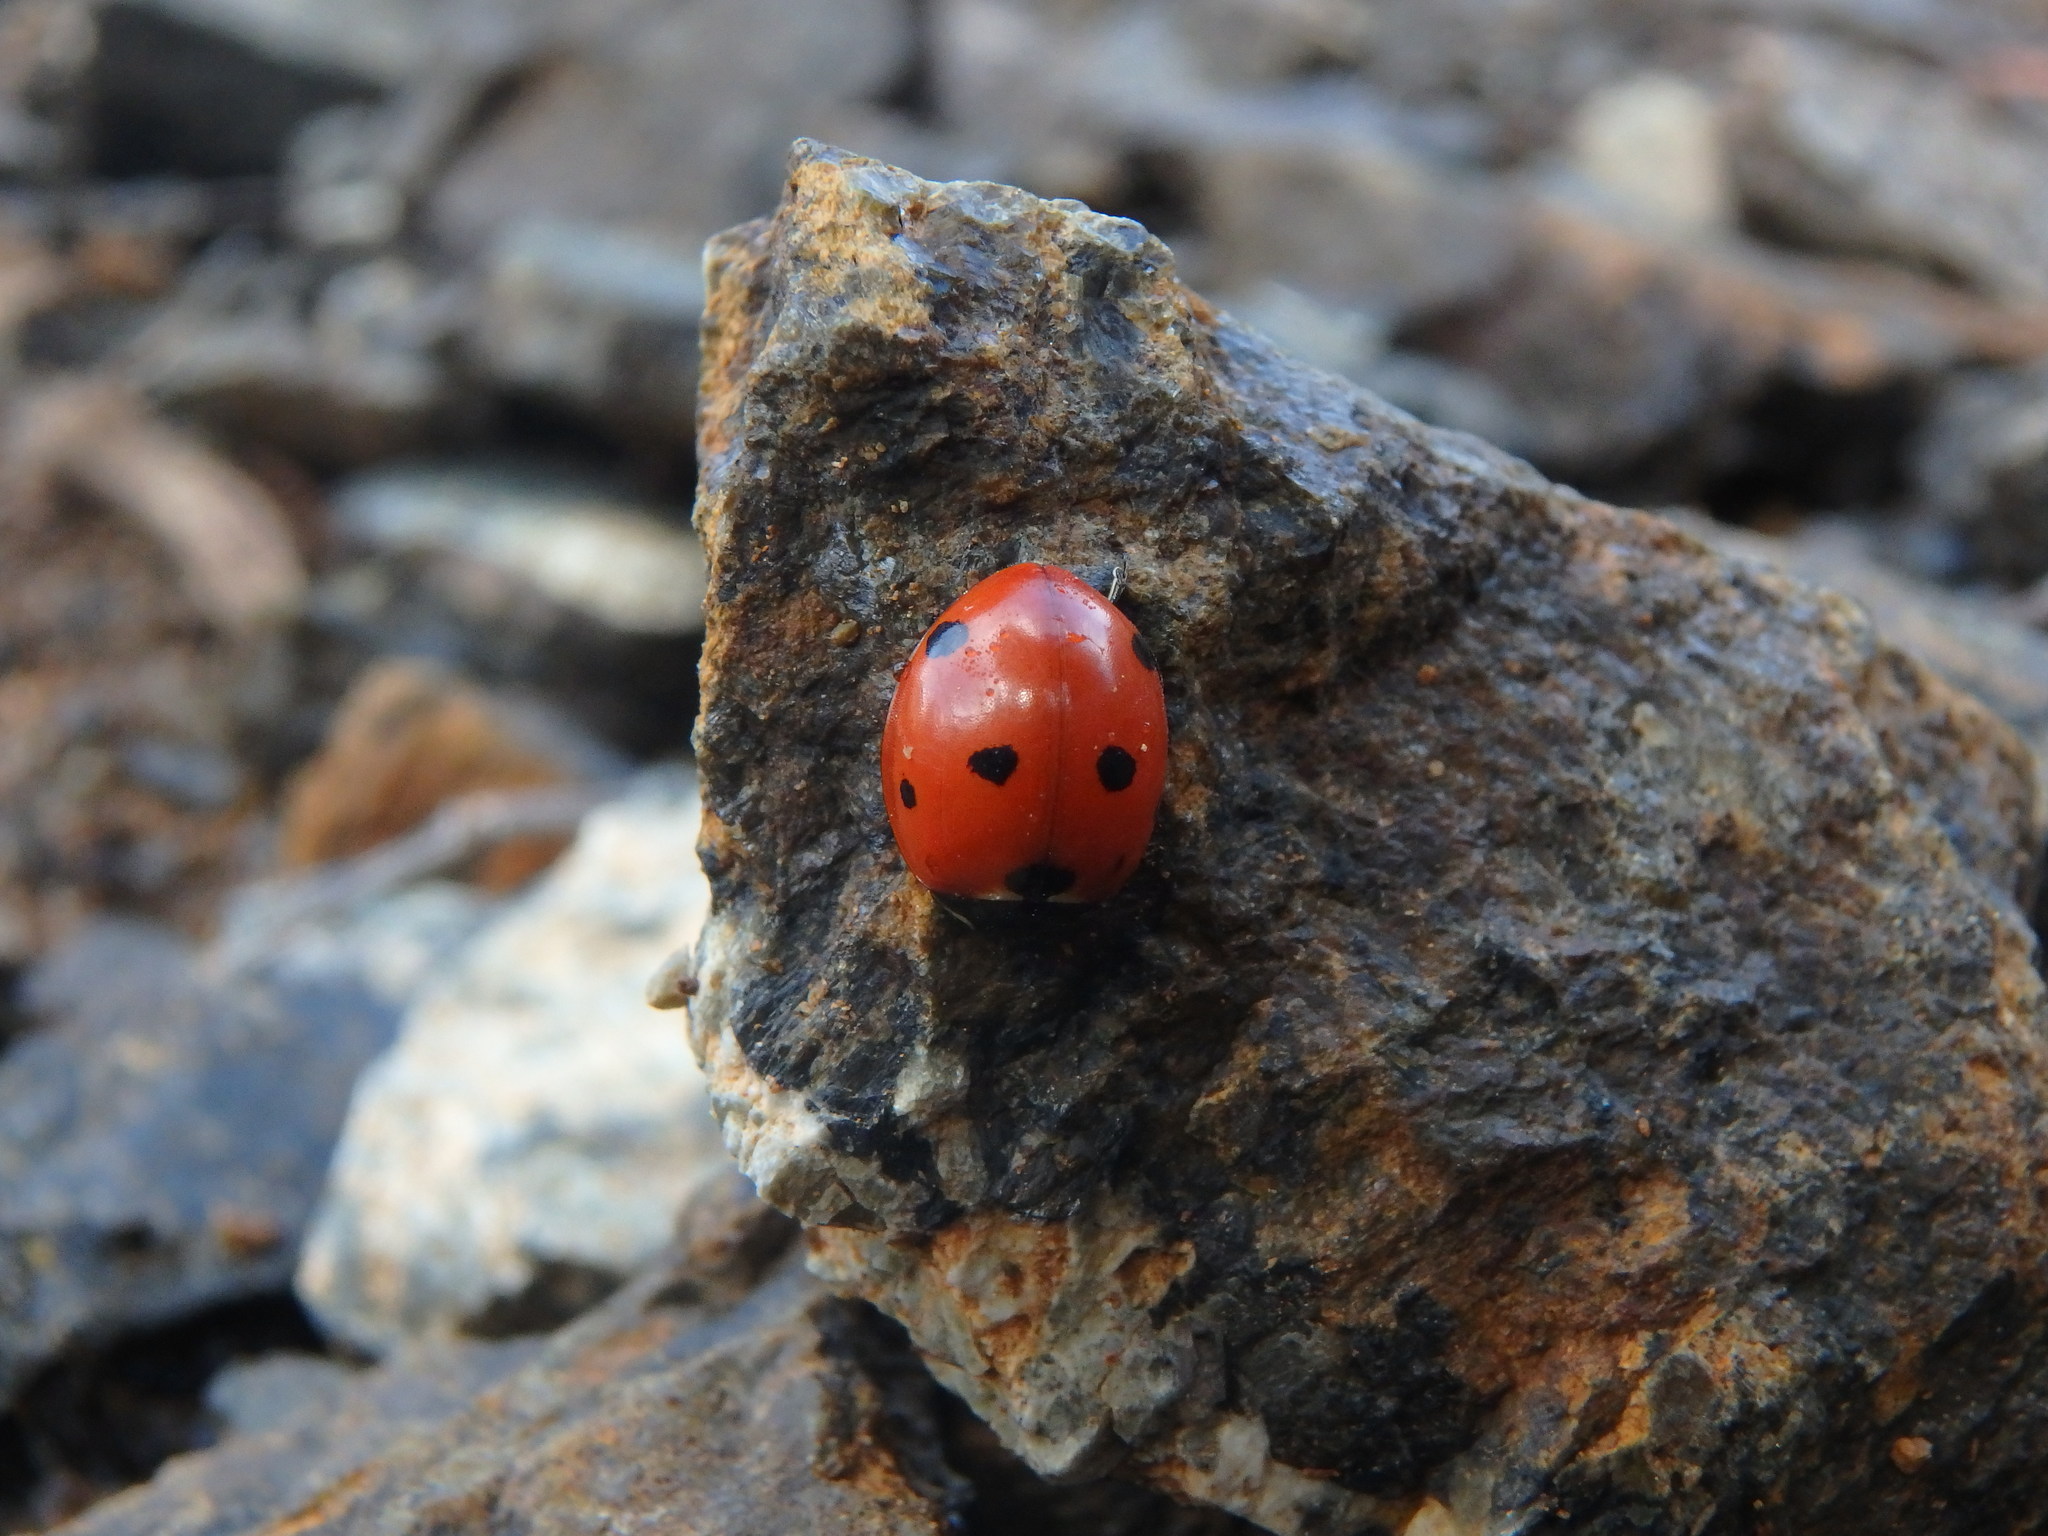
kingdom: Animalia
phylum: Arthropoda
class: Insecta
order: Coleoptera
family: Coccinellidae
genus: Coccinella
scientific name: Coccinella septempunctata
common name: Sevenspotted lady beetle
